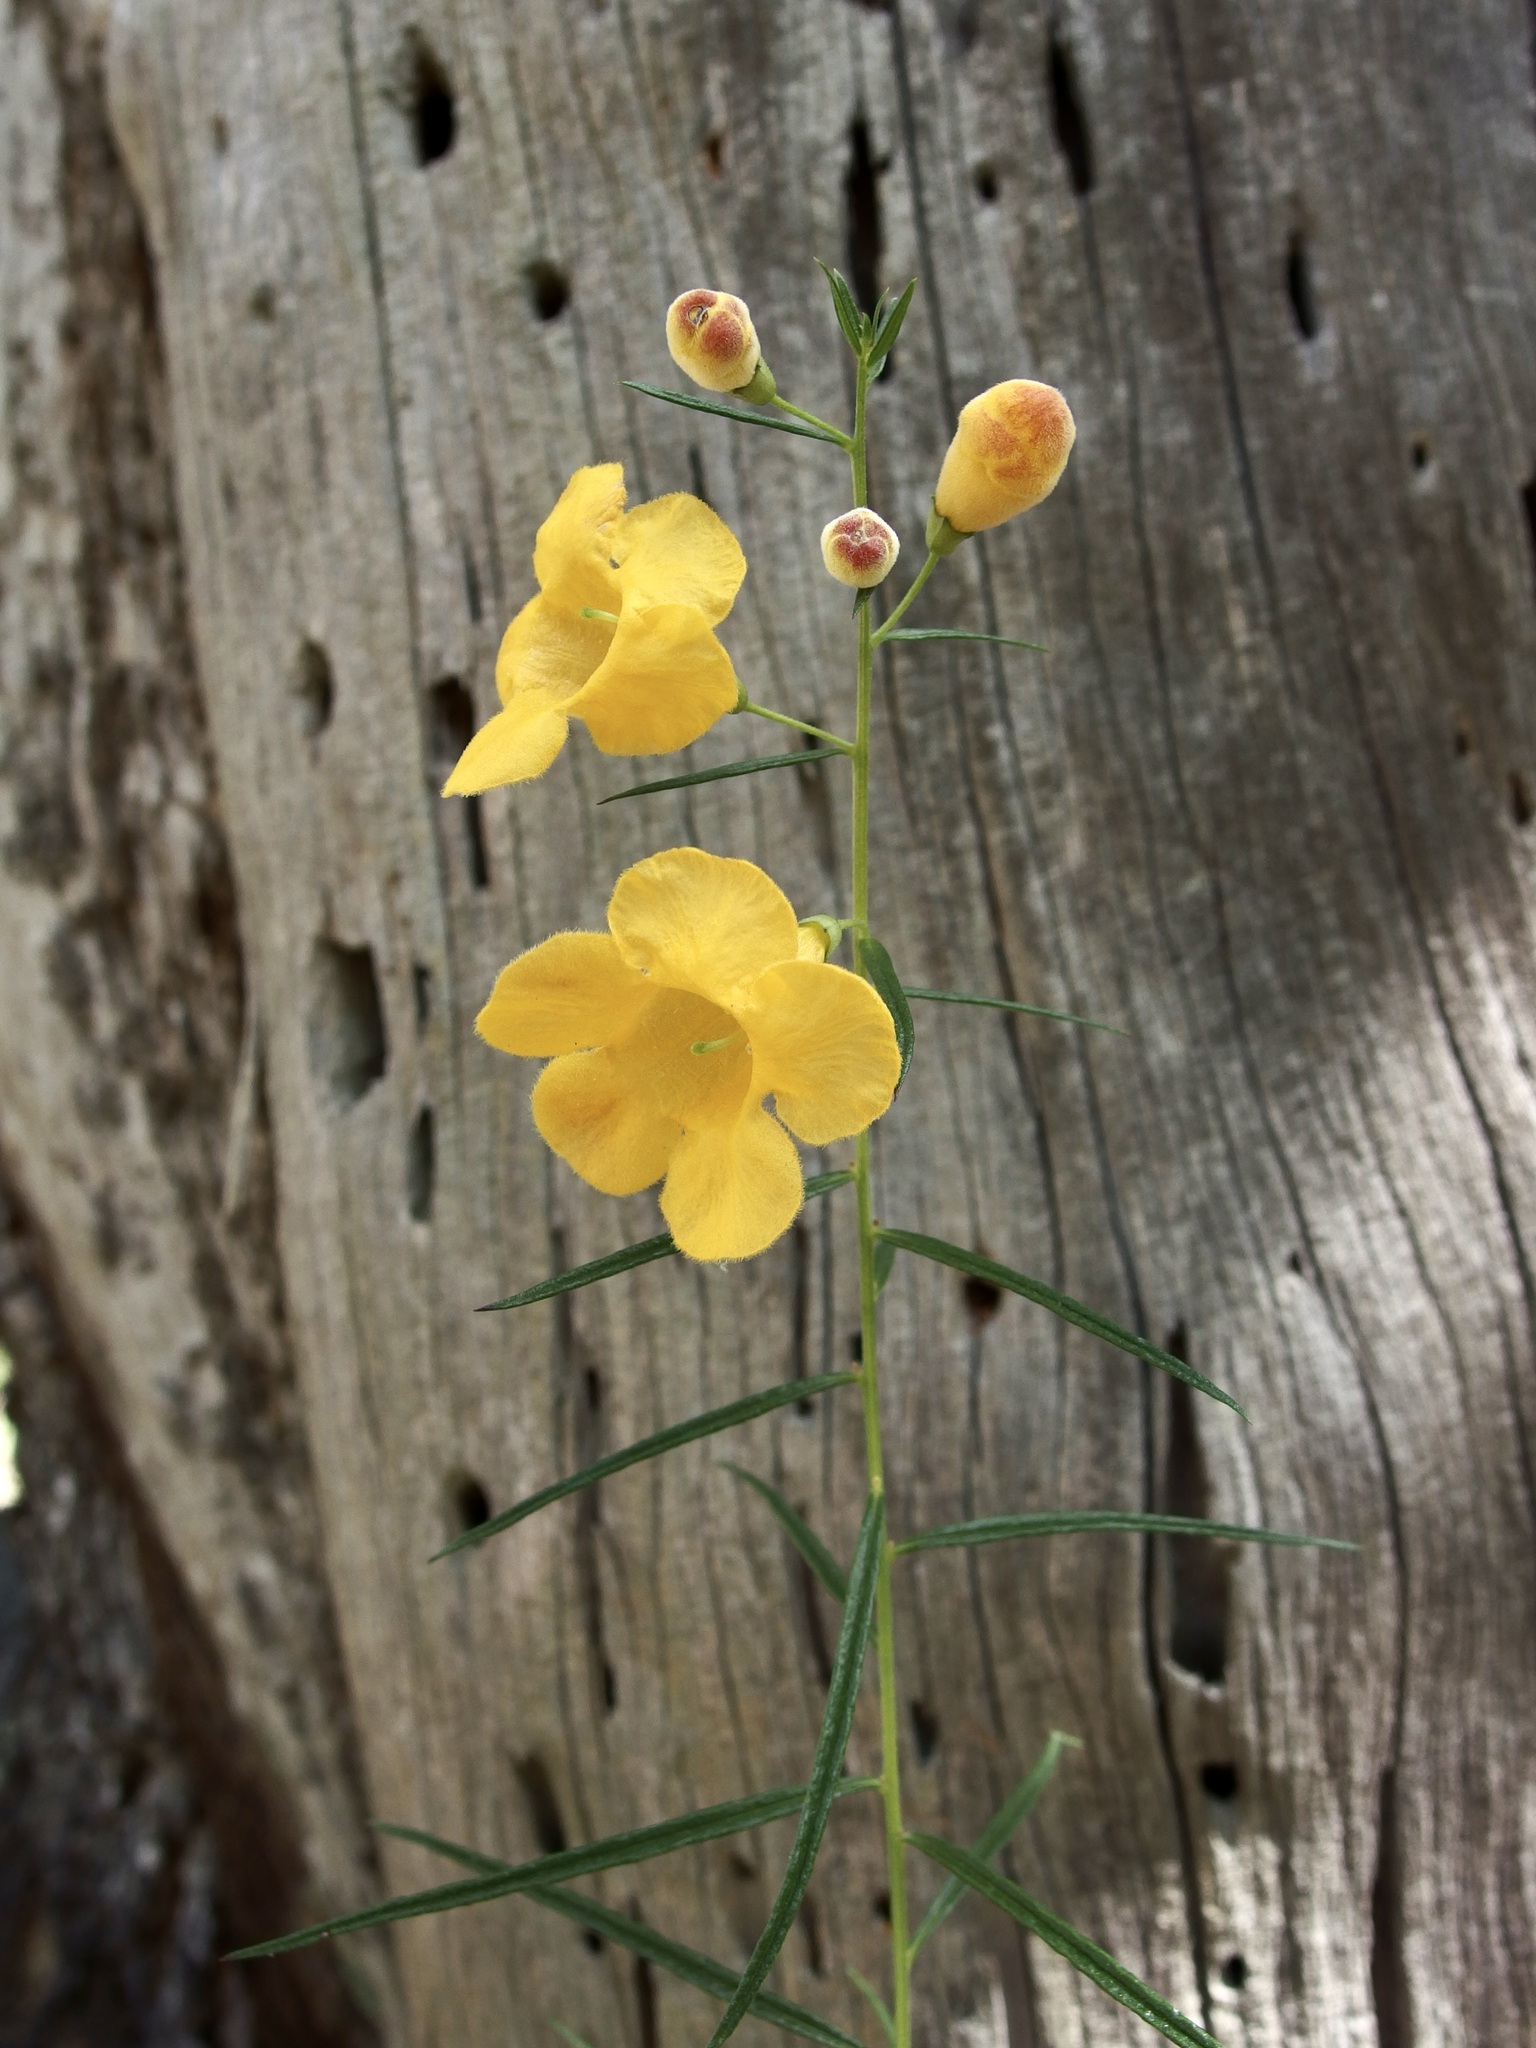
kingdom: Plantae
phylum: Tracheophyta
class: Magnoliopsida
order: Lamiales
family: Orobanchaceae
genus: Brachystigma
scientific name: Brachystigma wrightii
